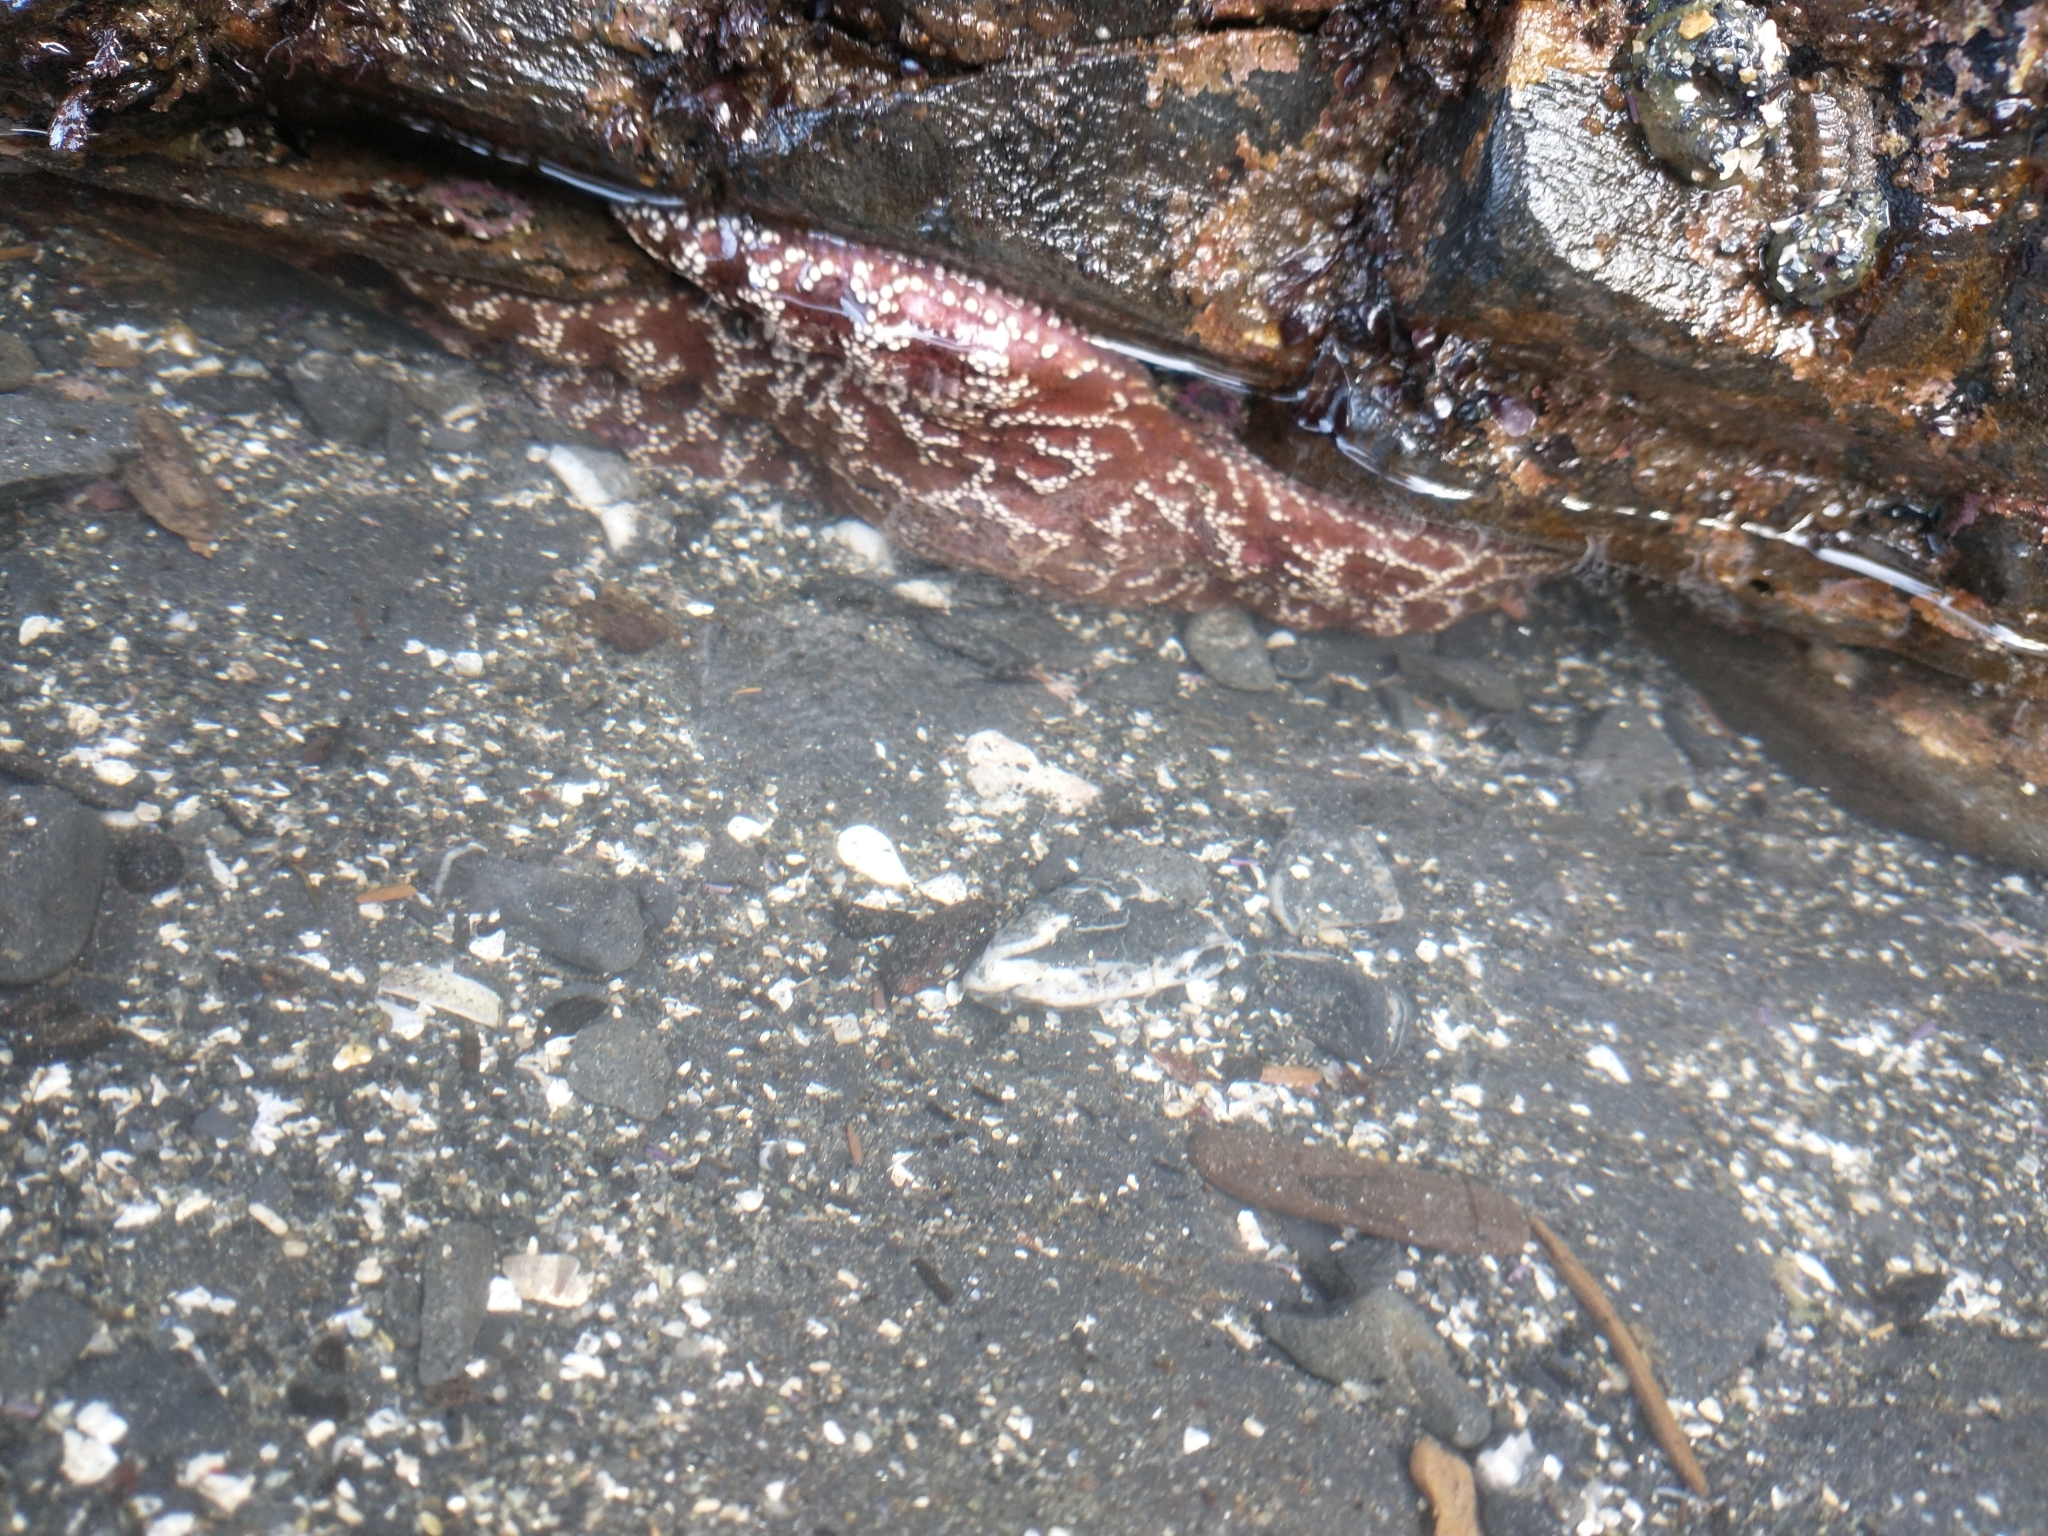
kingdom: Animalia
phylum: Echinodermata
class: Asteroidea
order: Forcipulatida
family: Asteriidae
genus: Pisaster
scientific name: Pisaster ochraceus
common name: Ochre stars
